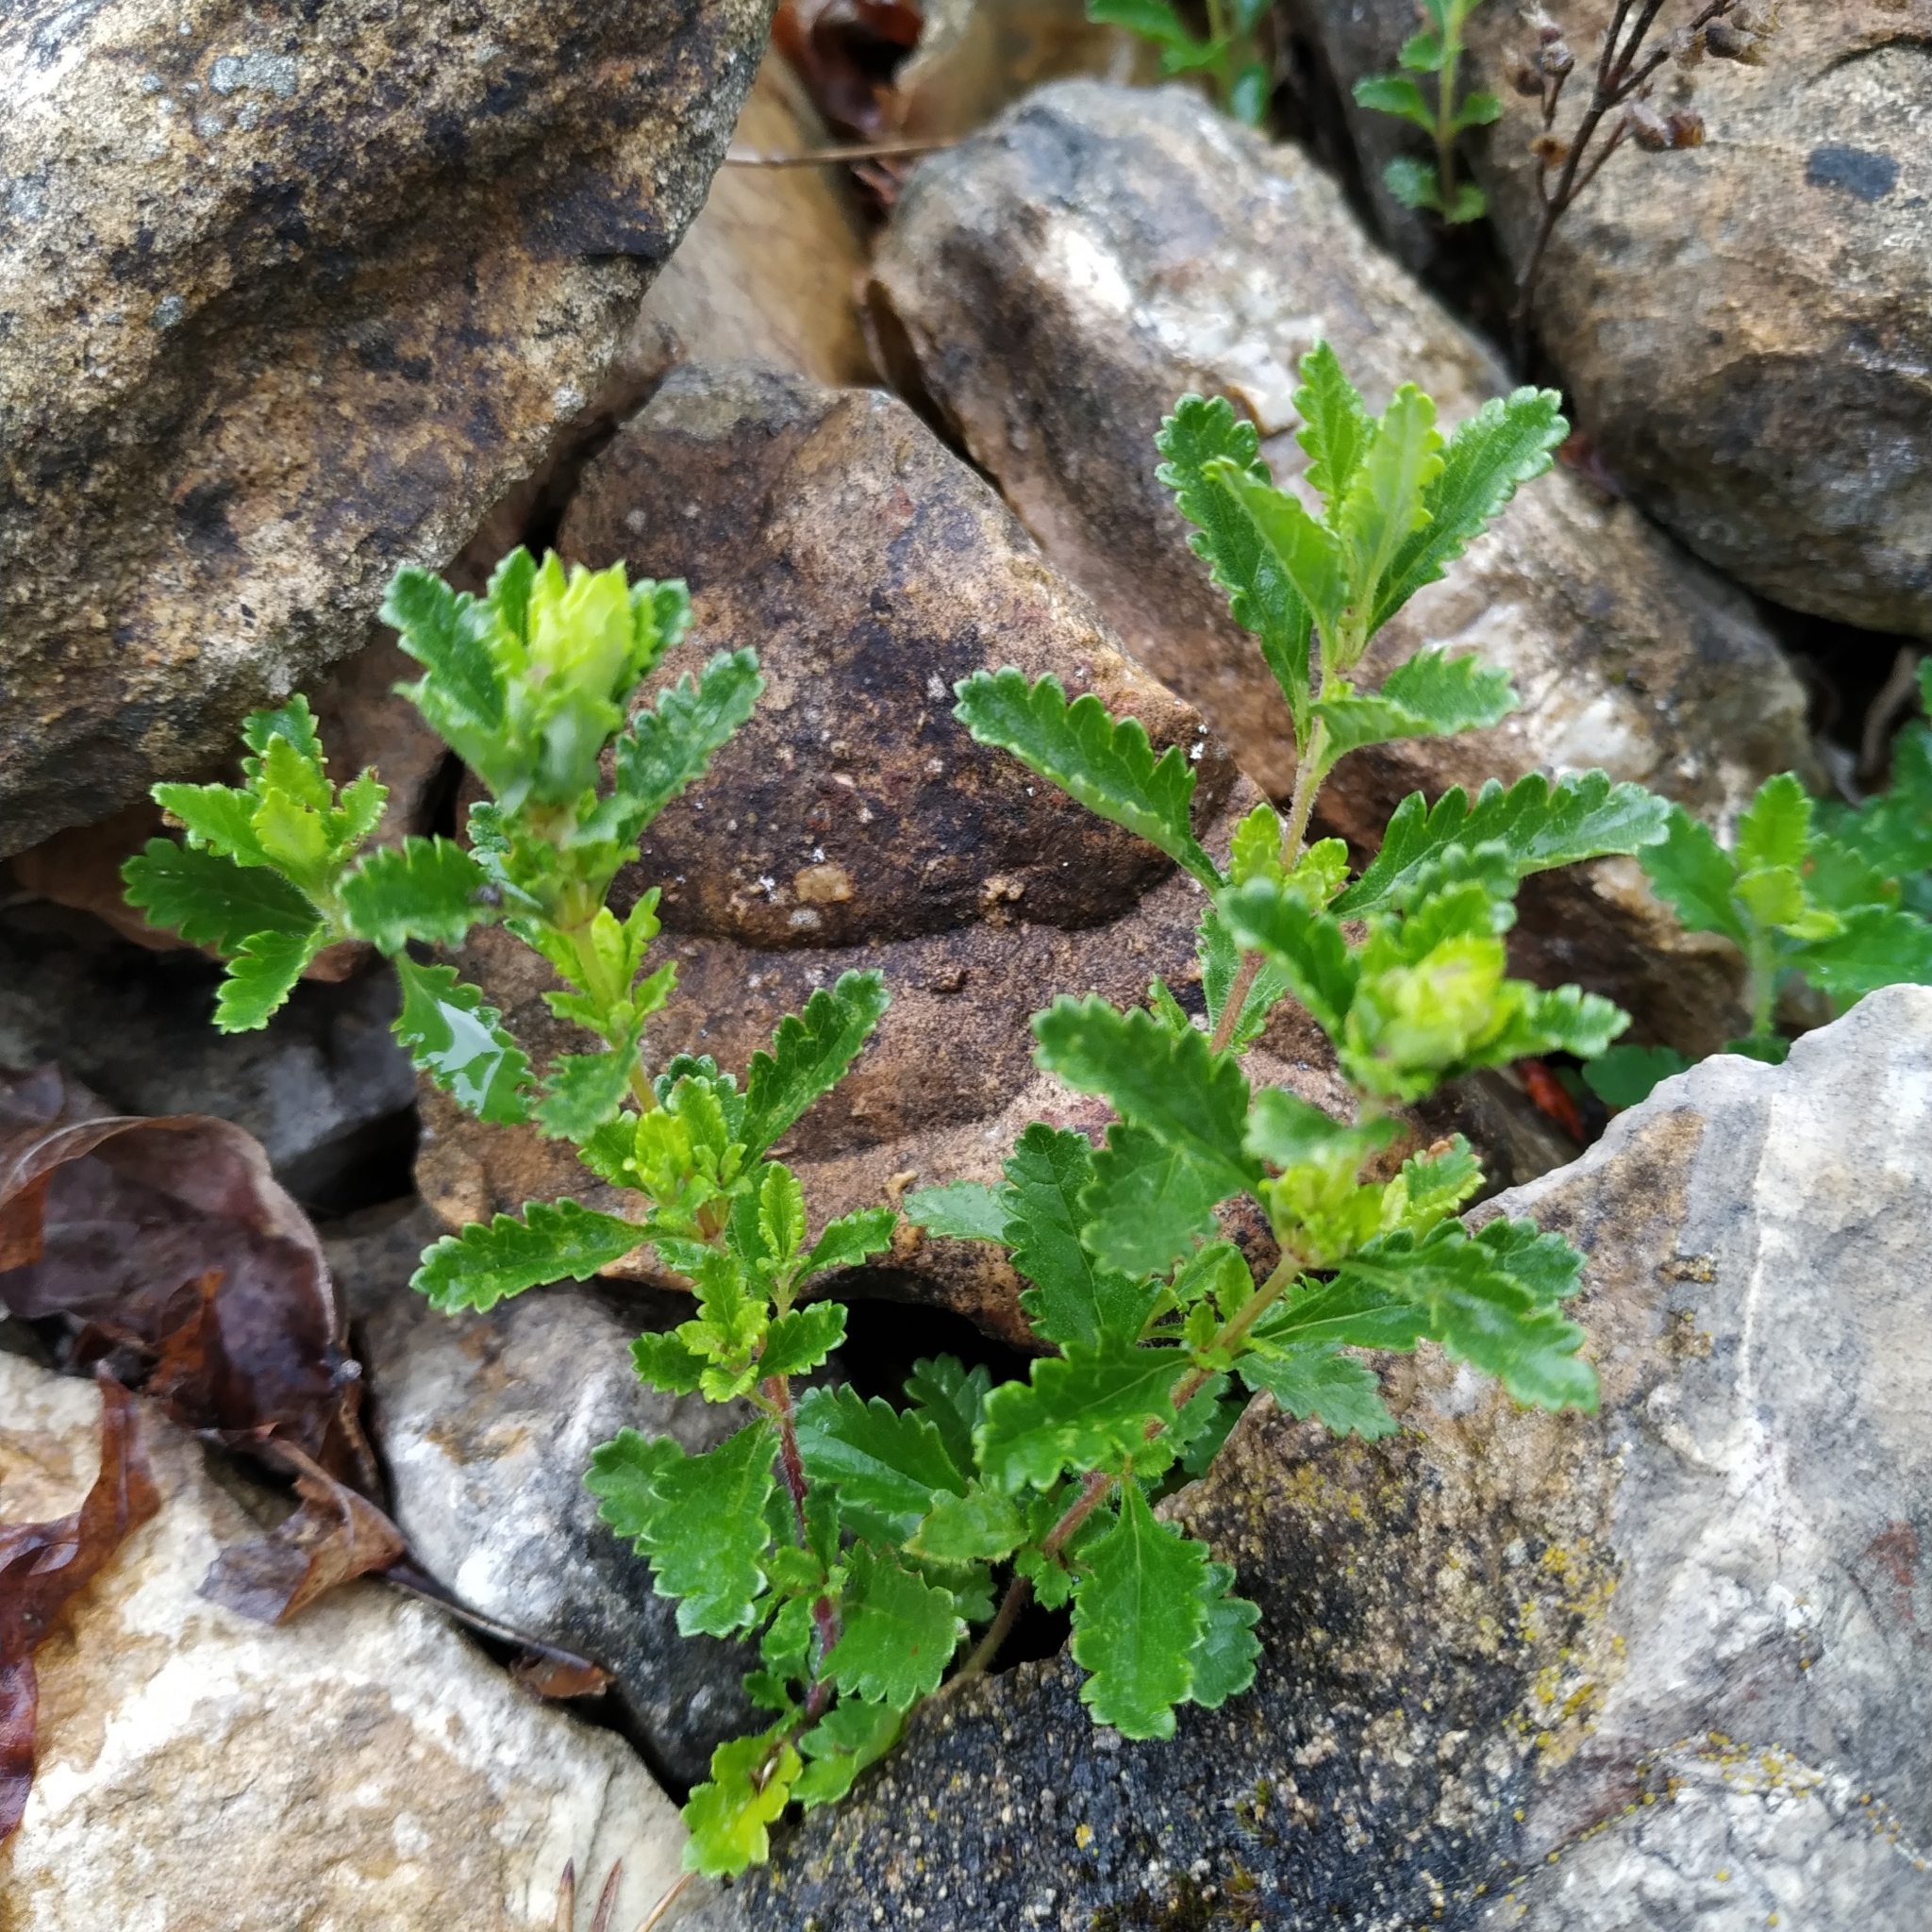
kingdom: Plantae
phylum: Tracheophyta
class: Magnoliopsida
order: Lamiales
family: Lamiaceae
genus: Teucrium
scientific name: Teucrium chamaedrys
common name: Wall germander
